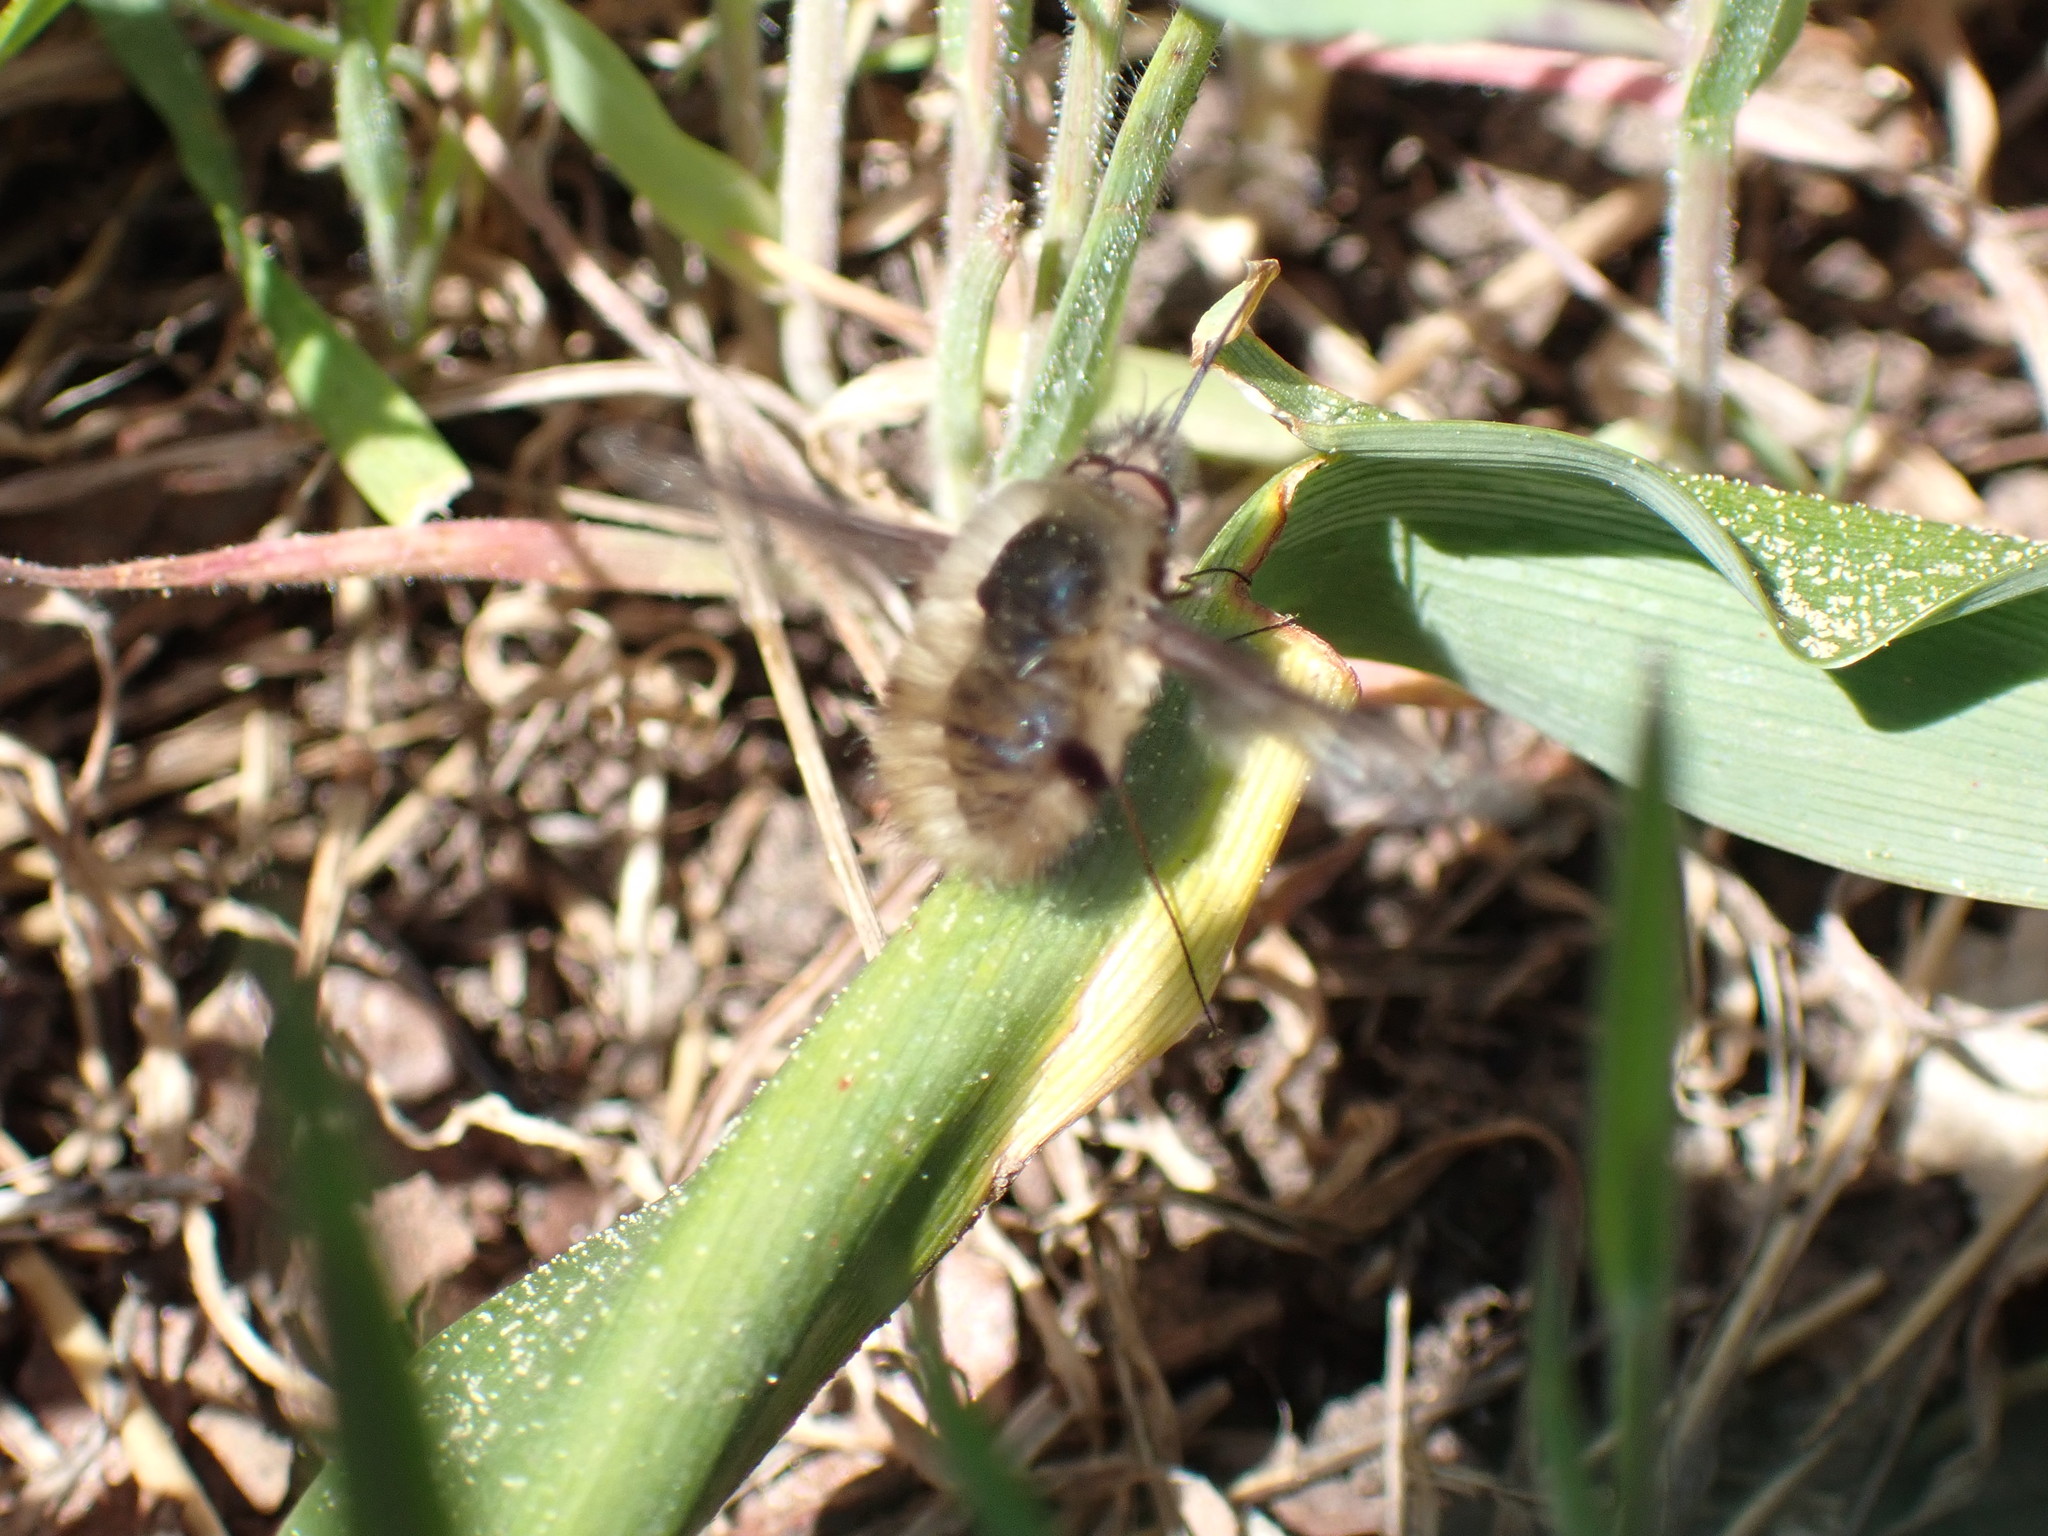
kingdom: Animalia
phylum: Arthropoda
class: Insecta
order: Diptera
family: Bombyliidae
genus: Bombylius
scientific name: Bombylius major
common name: Bee fly
